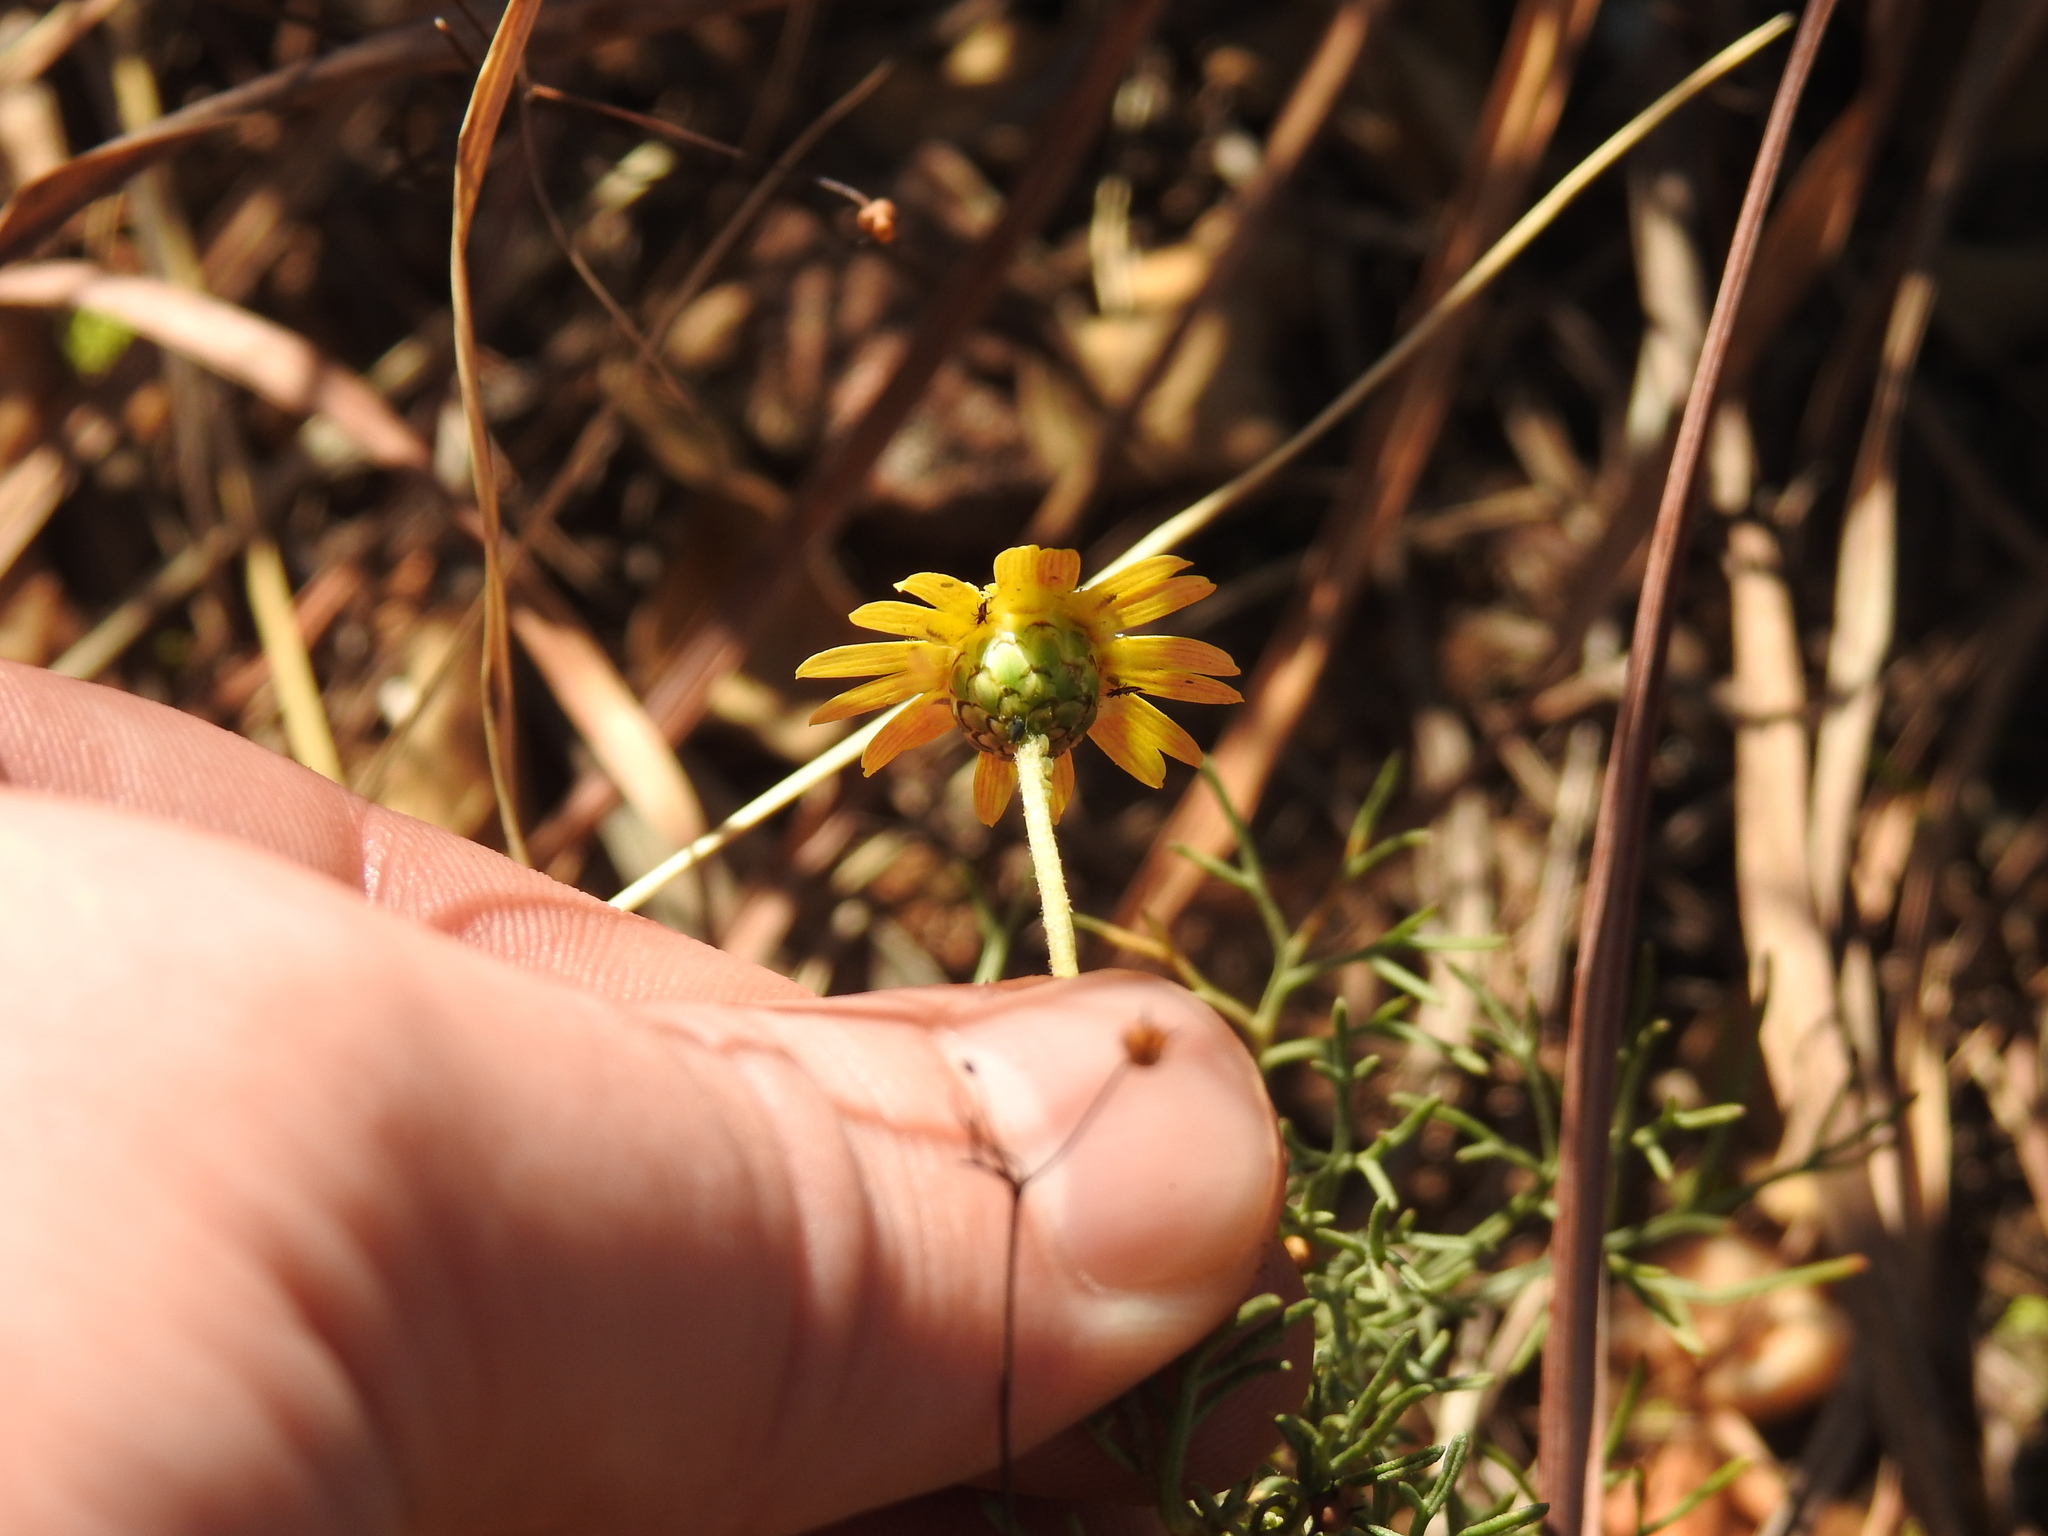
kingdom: Plantae
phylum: Tracheophyta
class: Magnoliopsida
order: Asterales
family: Asteraceae
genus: Ursinia
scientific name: Ursinia nana
